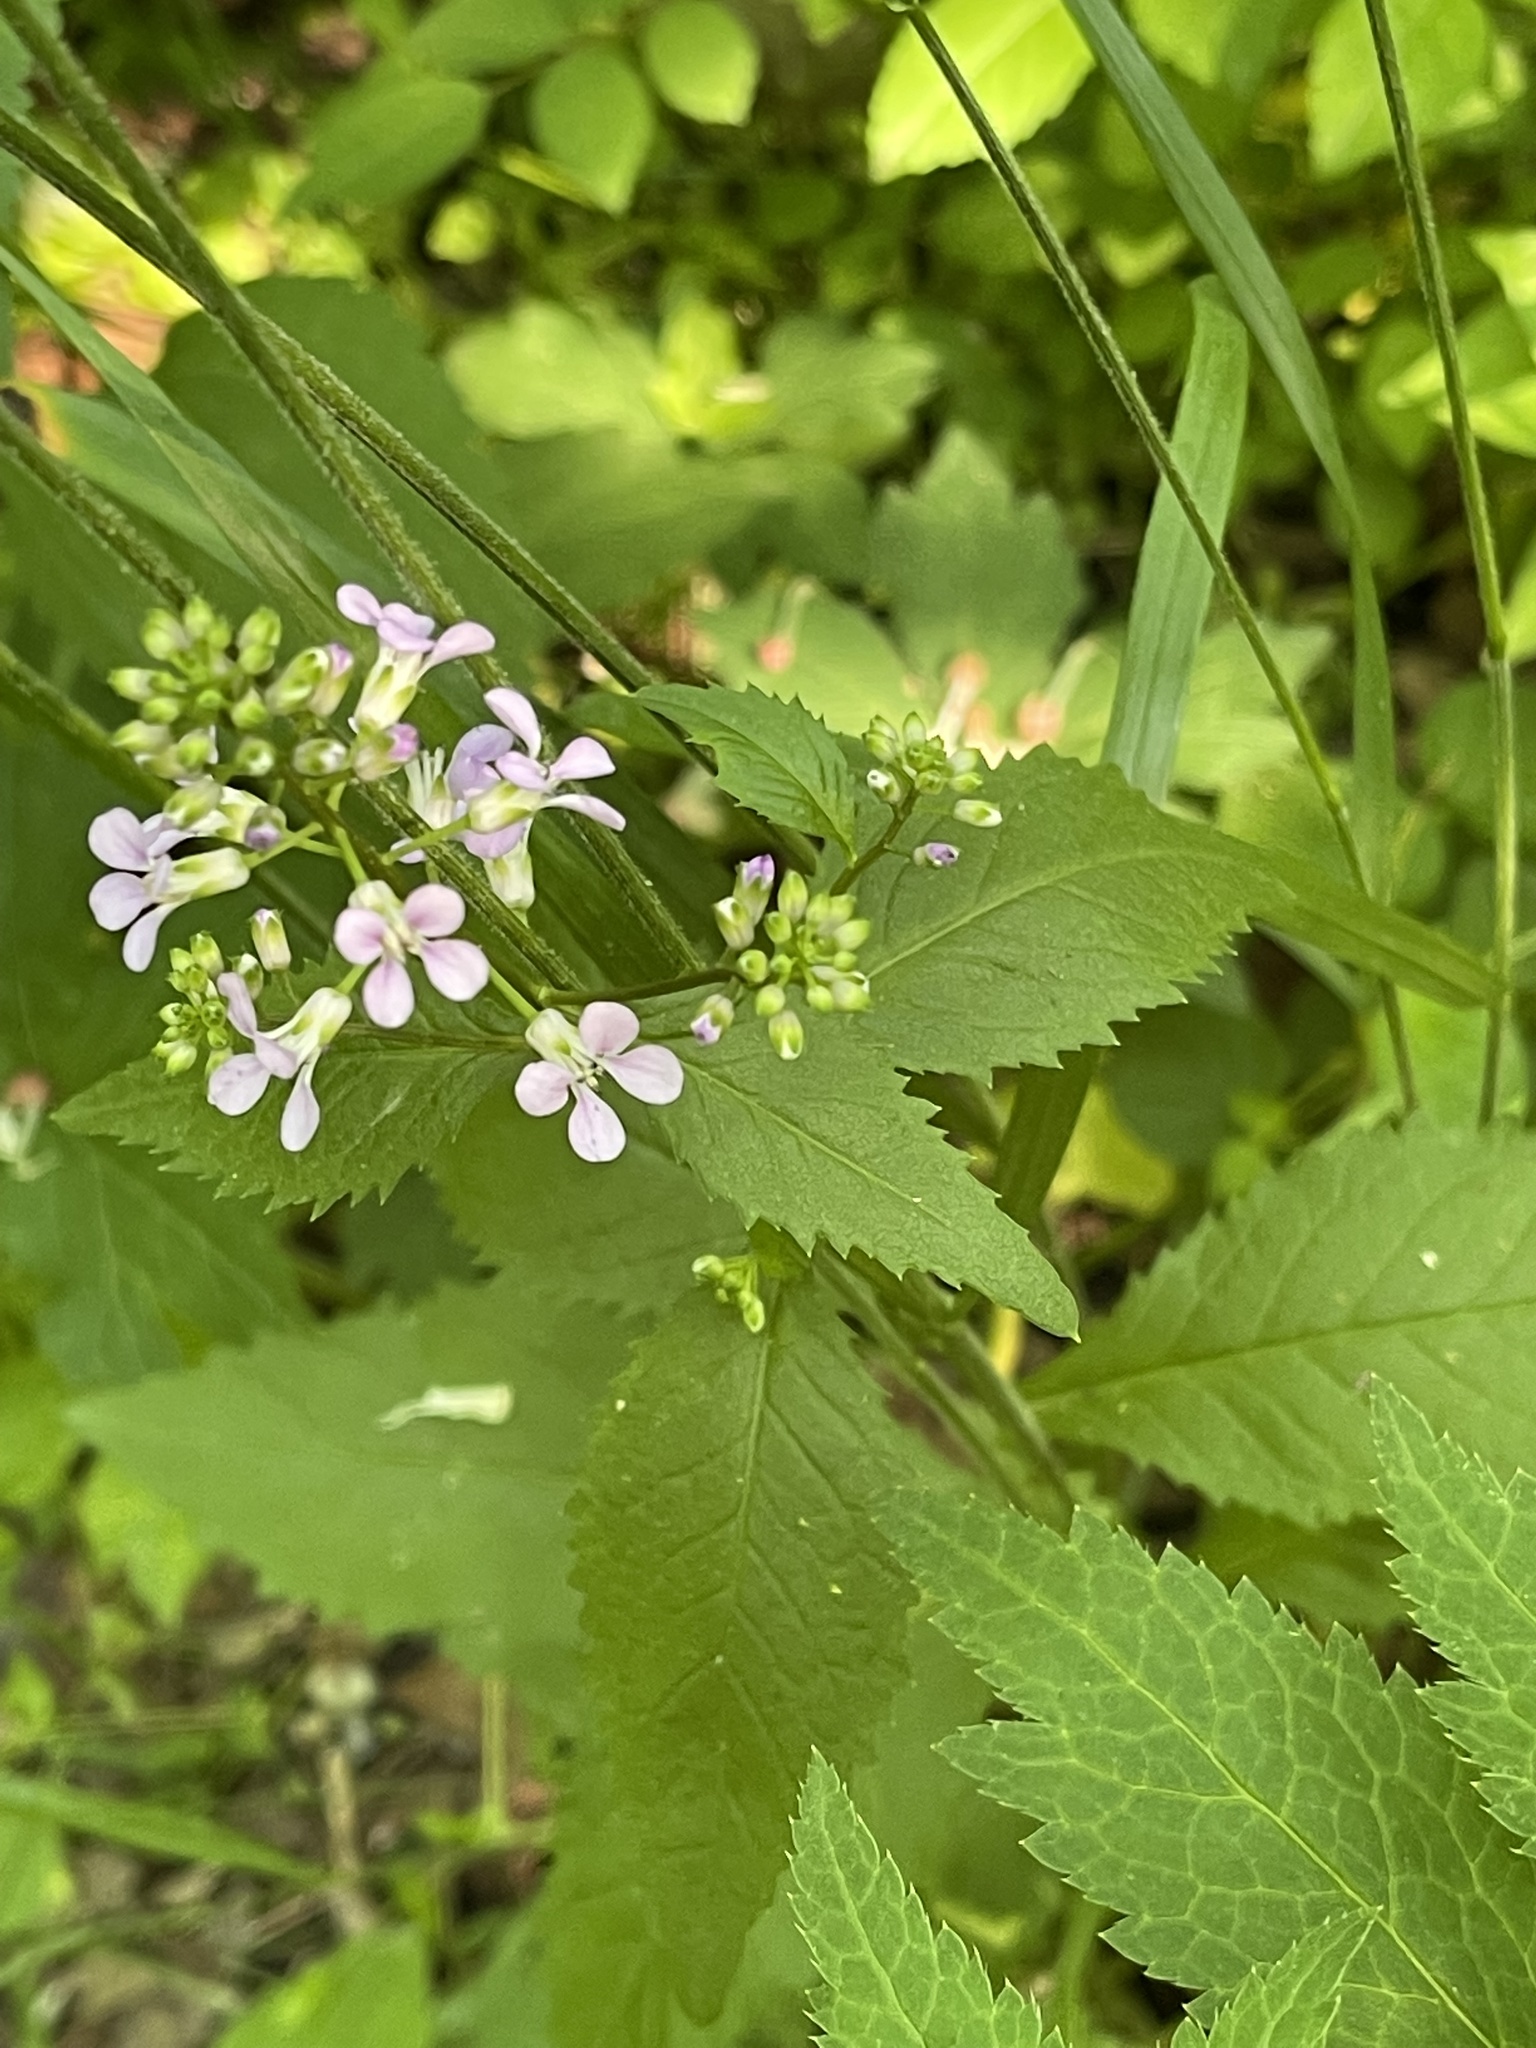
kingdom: Plantae
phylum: Tracheophyta
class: Magnoliopsida
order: Brassicales
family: Brassicaceae
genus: Iodanthus
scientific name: Iodanthus pinnatifidus
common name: Violet rocket
